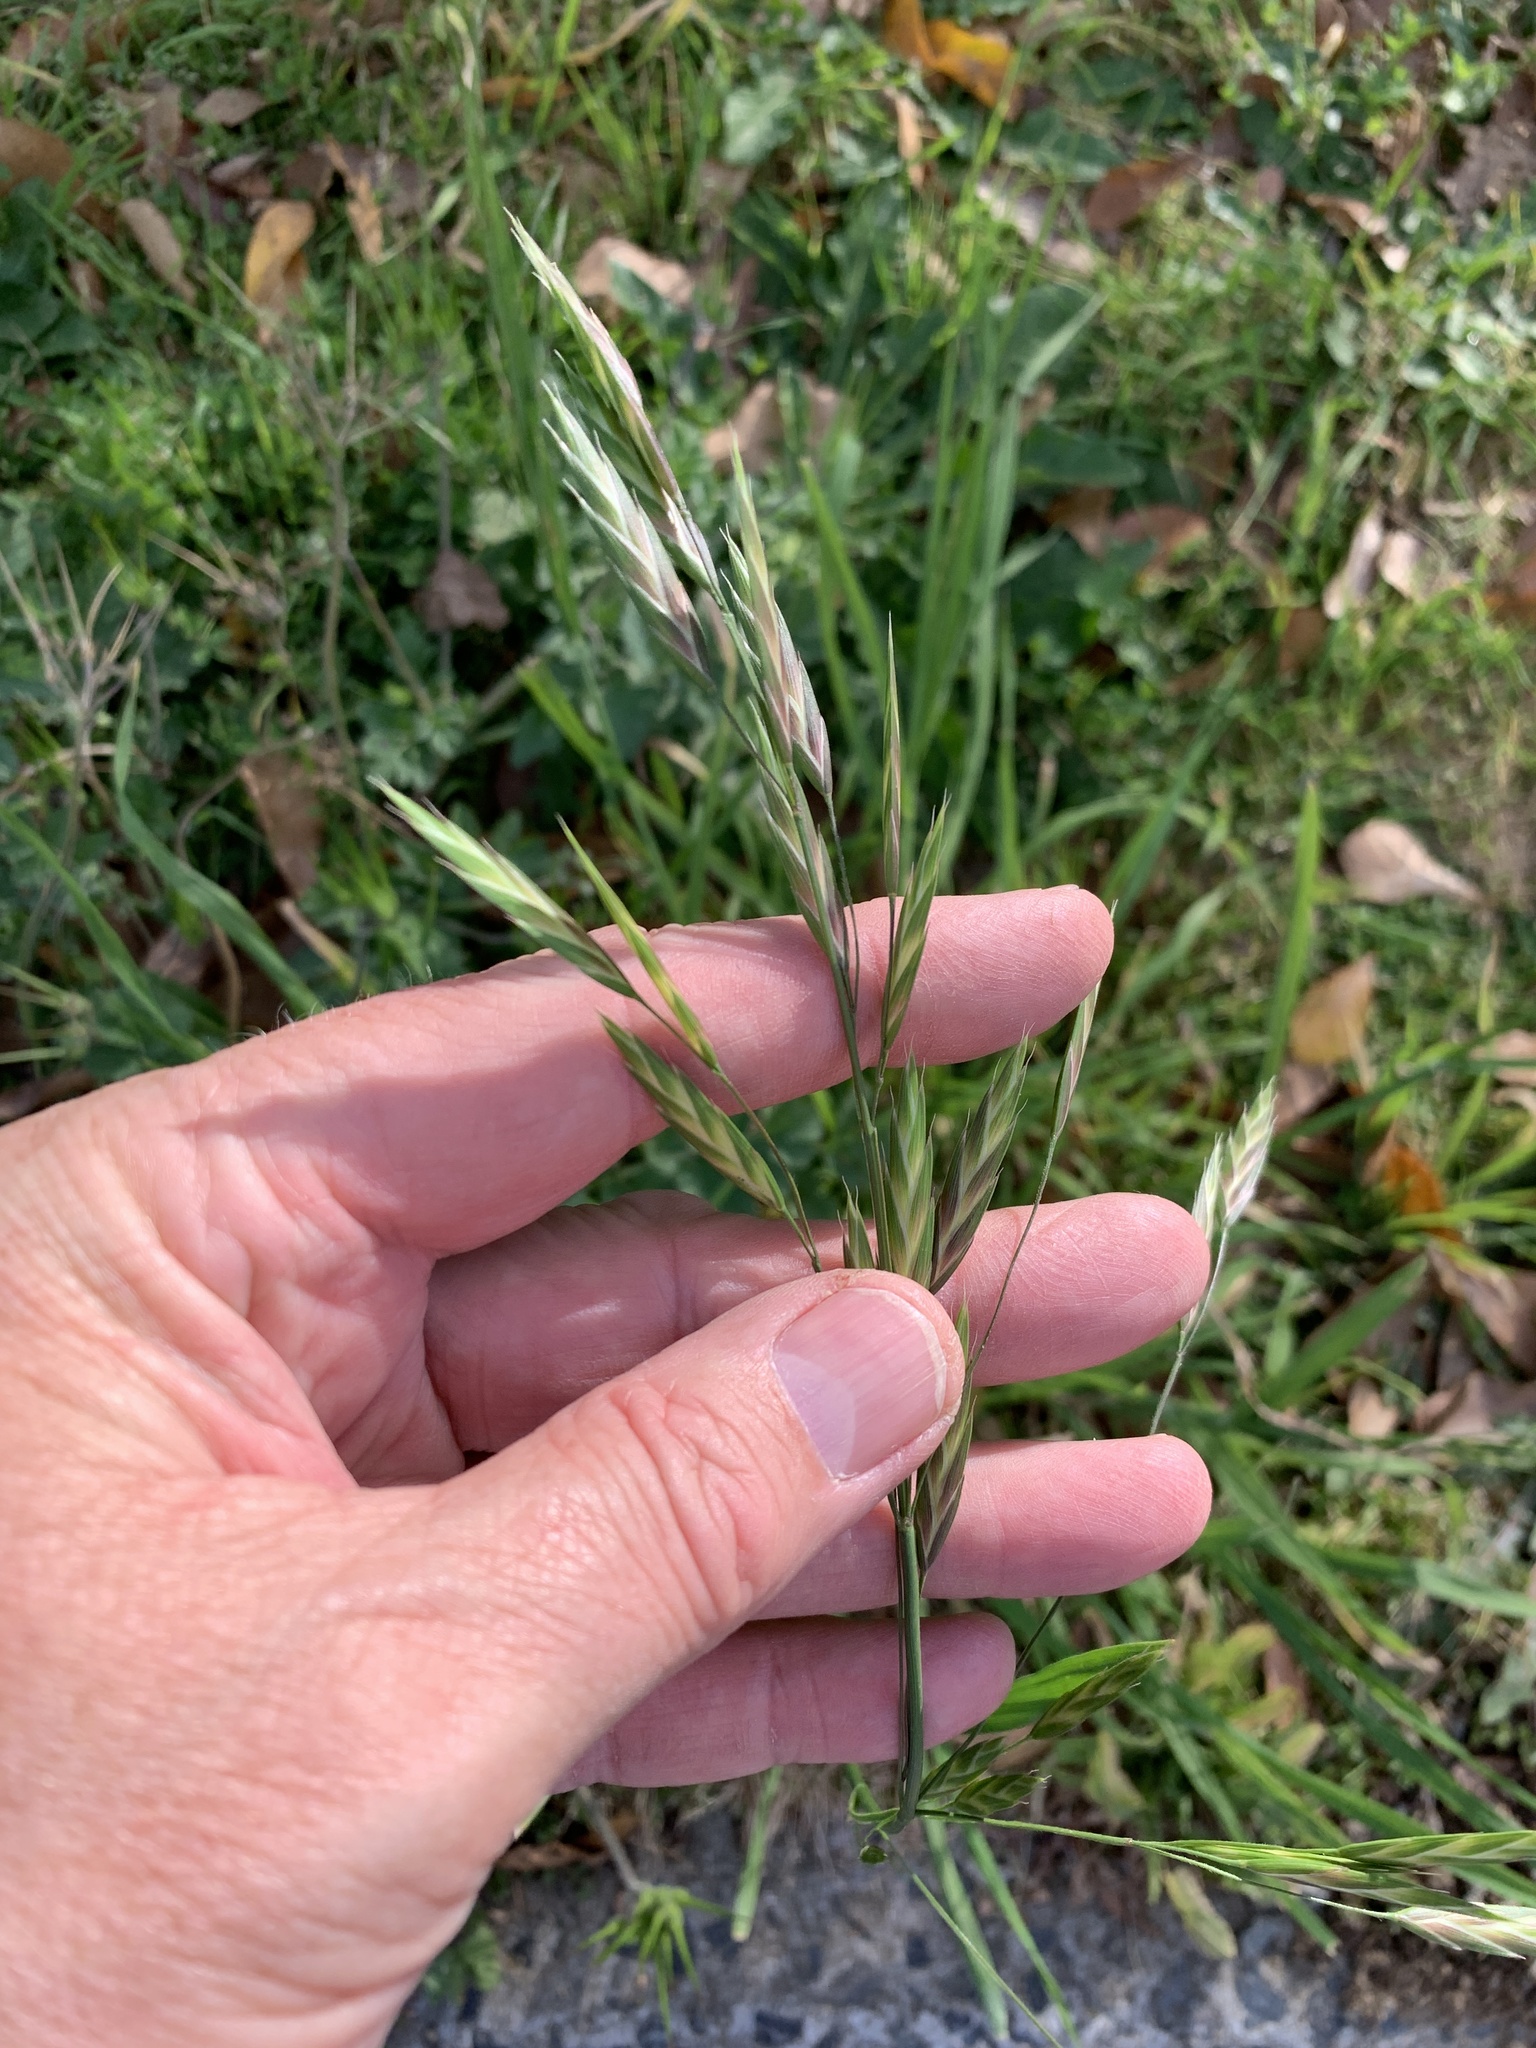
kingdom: Plantae
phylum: Tracheophyta
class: Liliopsida
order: Poales
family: Poaceae
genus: Bromus
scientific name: Bromus catharticus
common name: Rescuegrass
